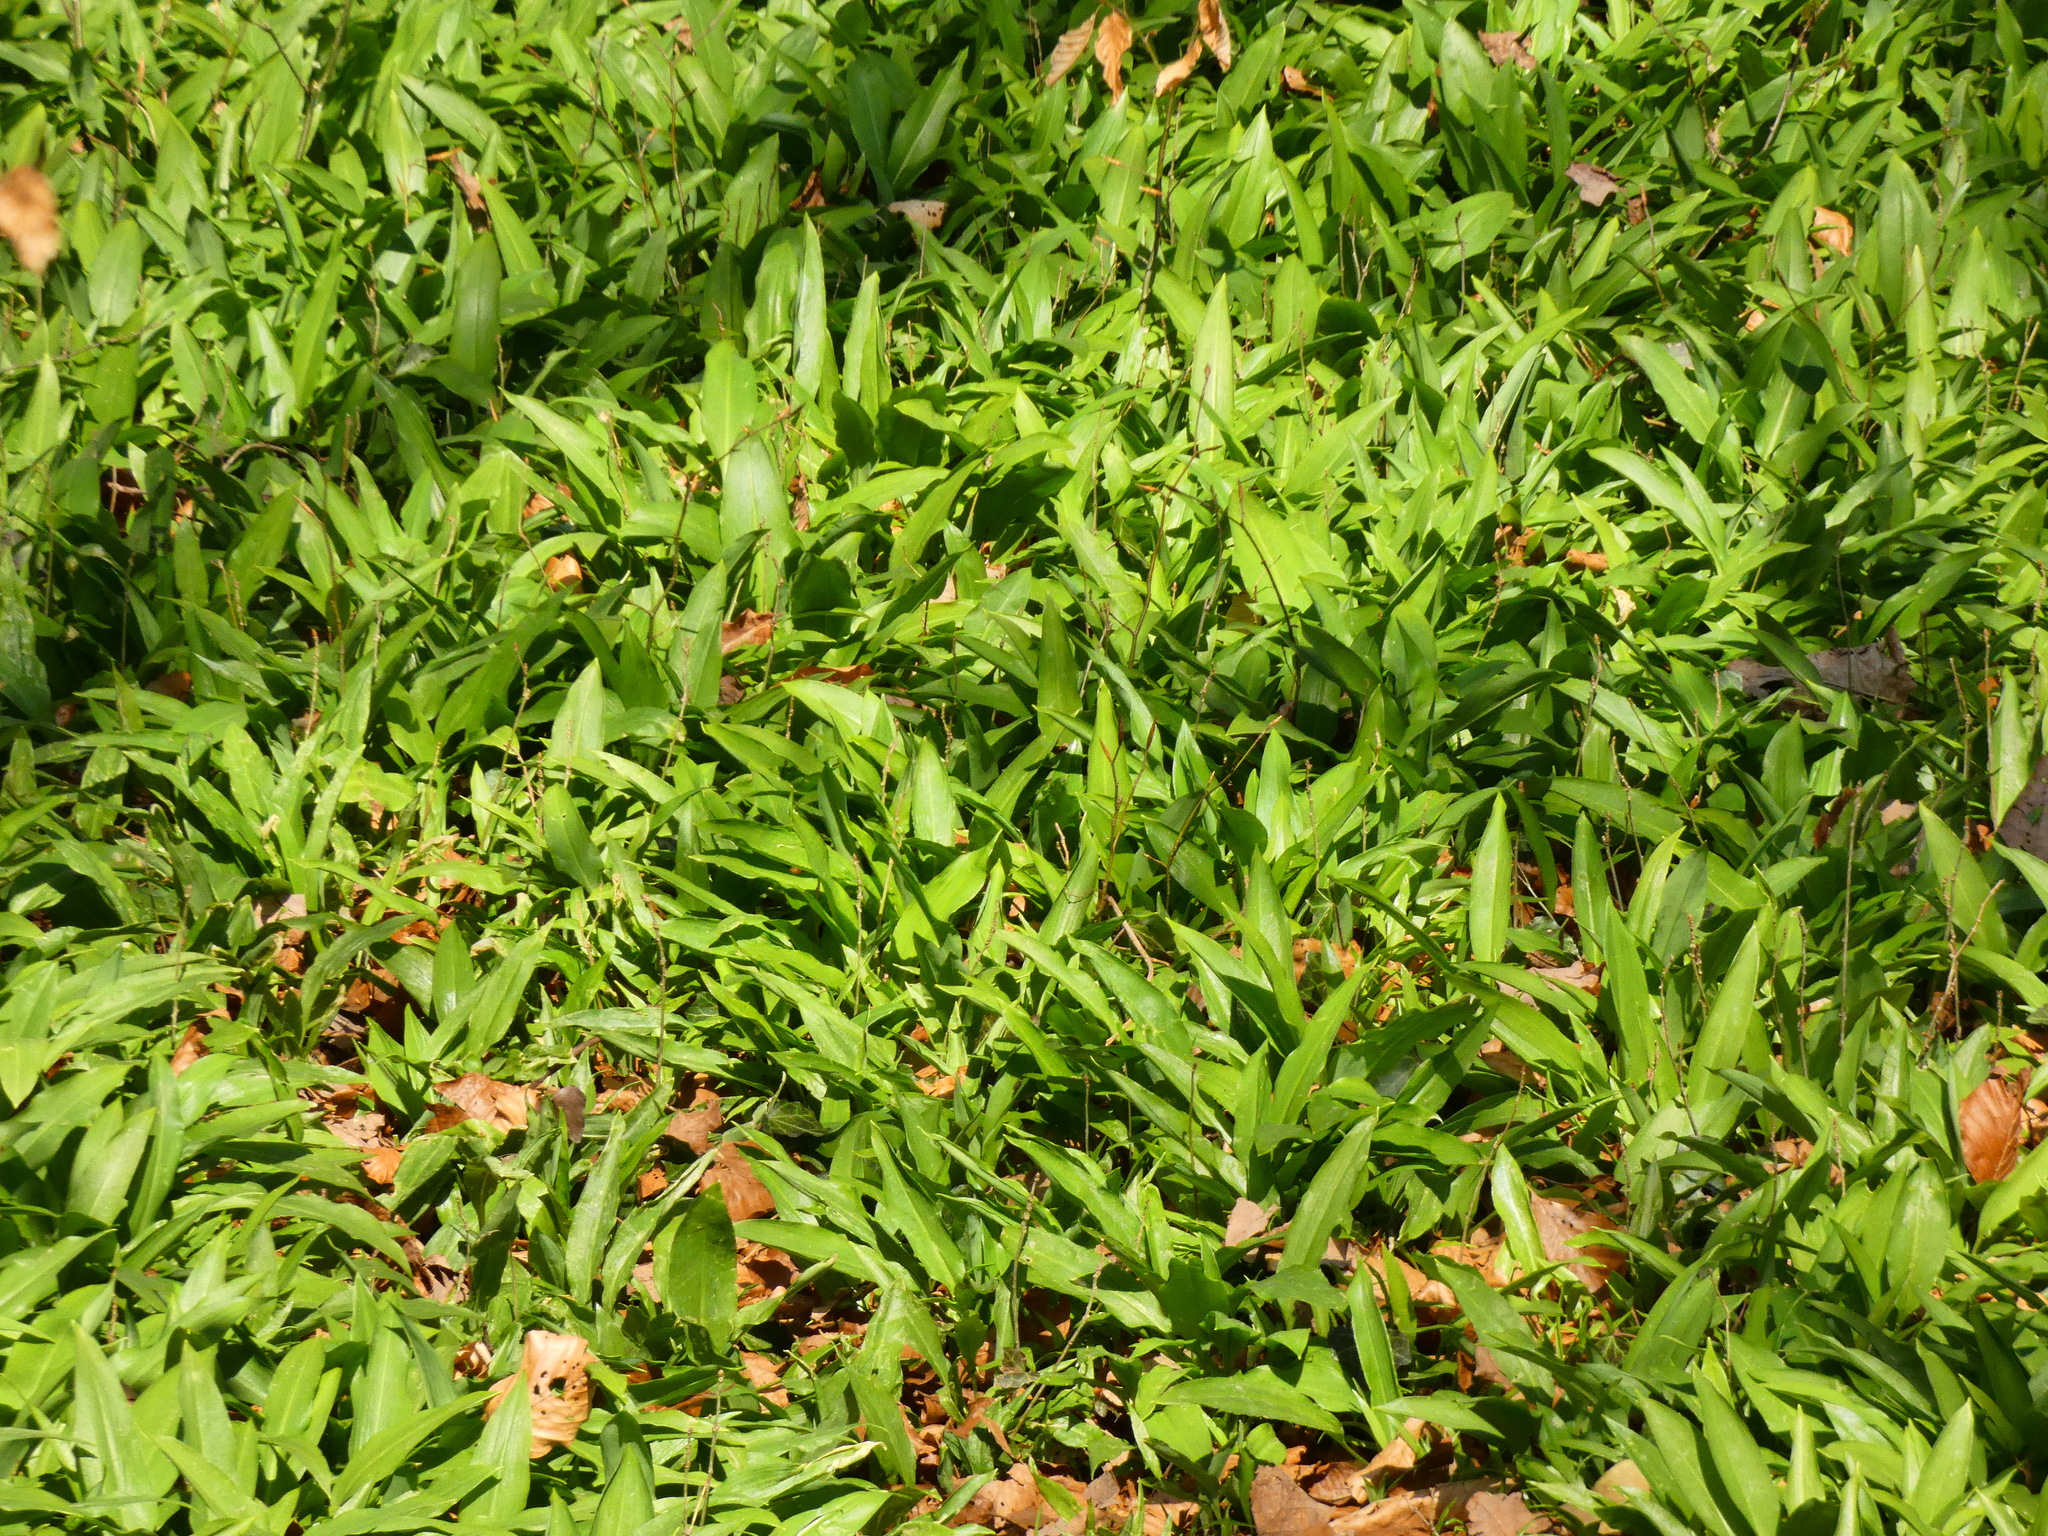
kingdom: Plantae
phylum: Tracheophyta
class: Liliopsida
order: Asparagales
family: Amaryllidaceae
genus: Allium
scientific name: Allium ursinum
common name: Ramsons
